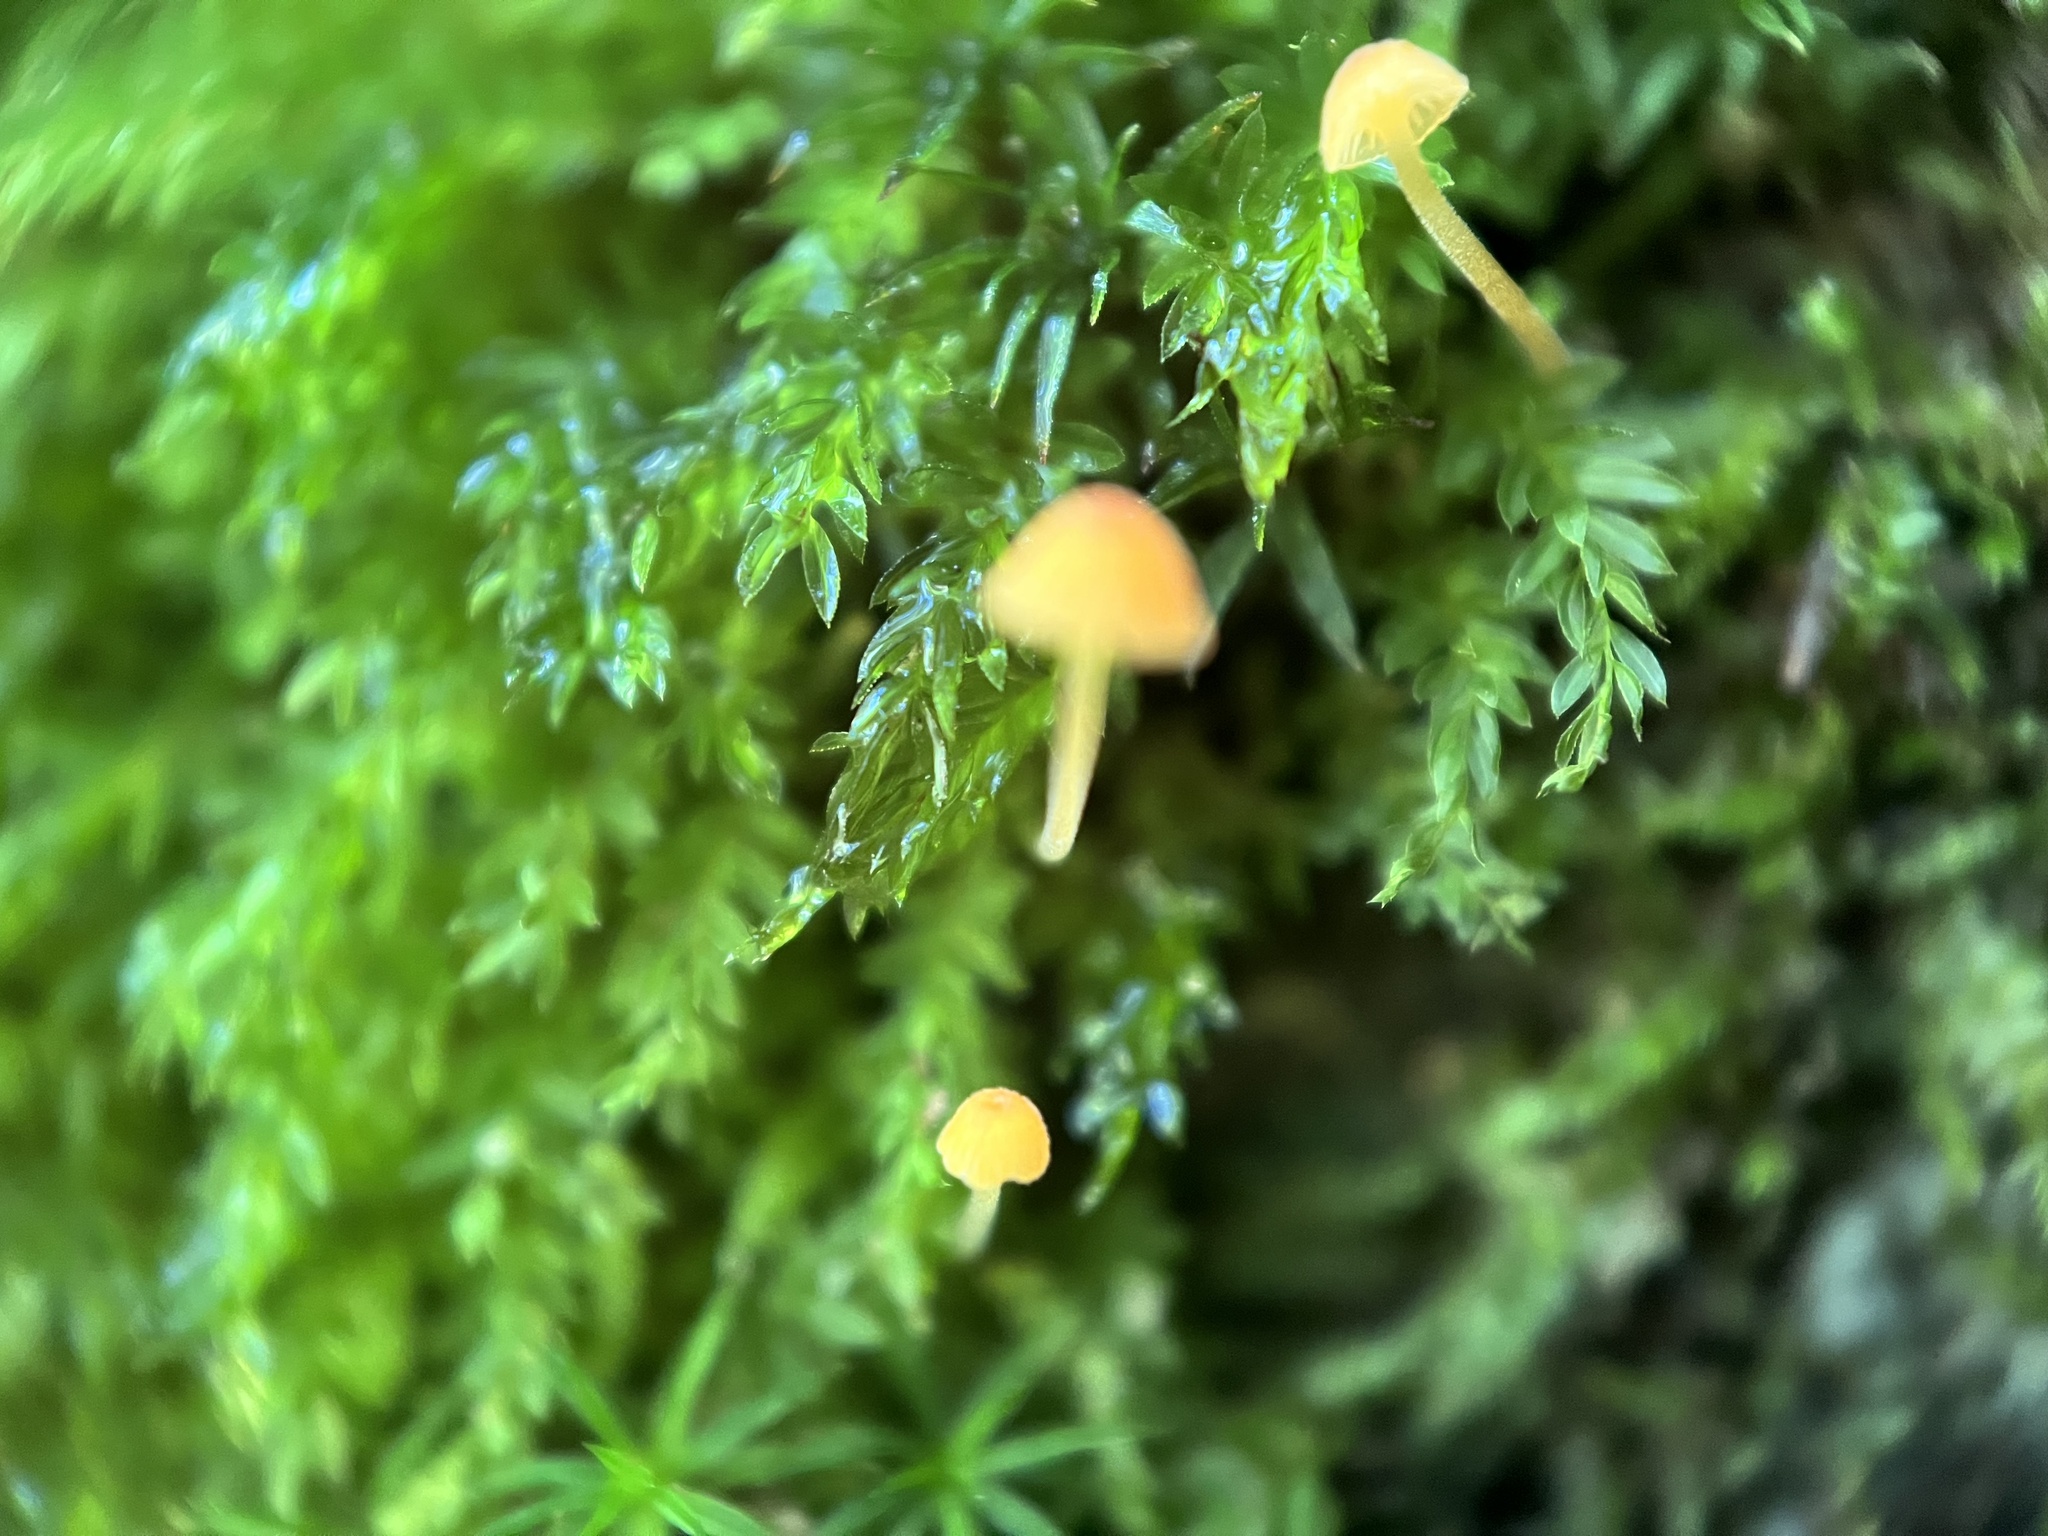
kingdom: Fungi
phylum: Basidiomycota
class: Agaricomycetes
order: Hymenochaetales
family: Rickenellaceae
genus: Rickenella
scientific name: Rickenella fibula
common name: Orange mosscap
